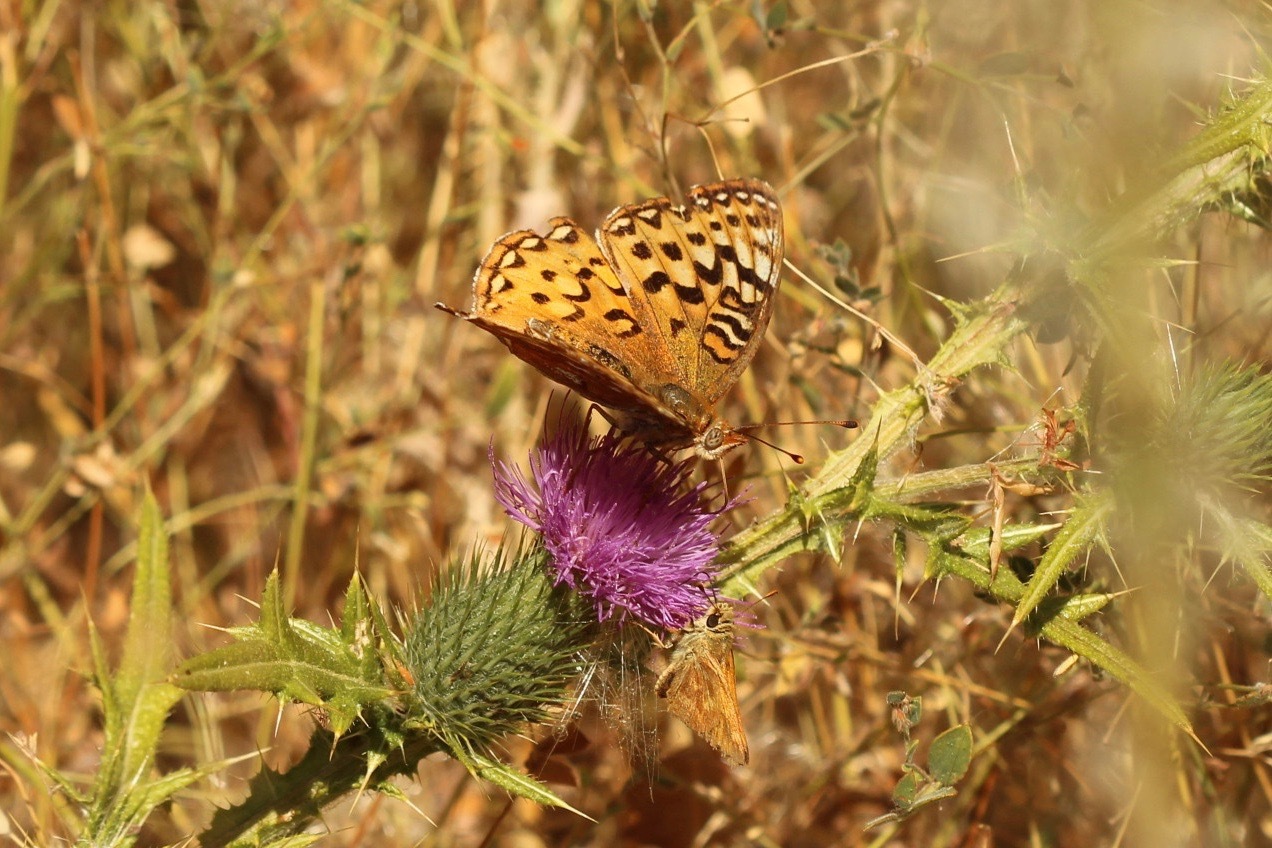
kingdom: Animalia
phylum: Arthropoda
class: Insecta
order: Lepidoptera
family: Nymphalidae
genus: Argynnis
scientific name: Argynnis coronis
